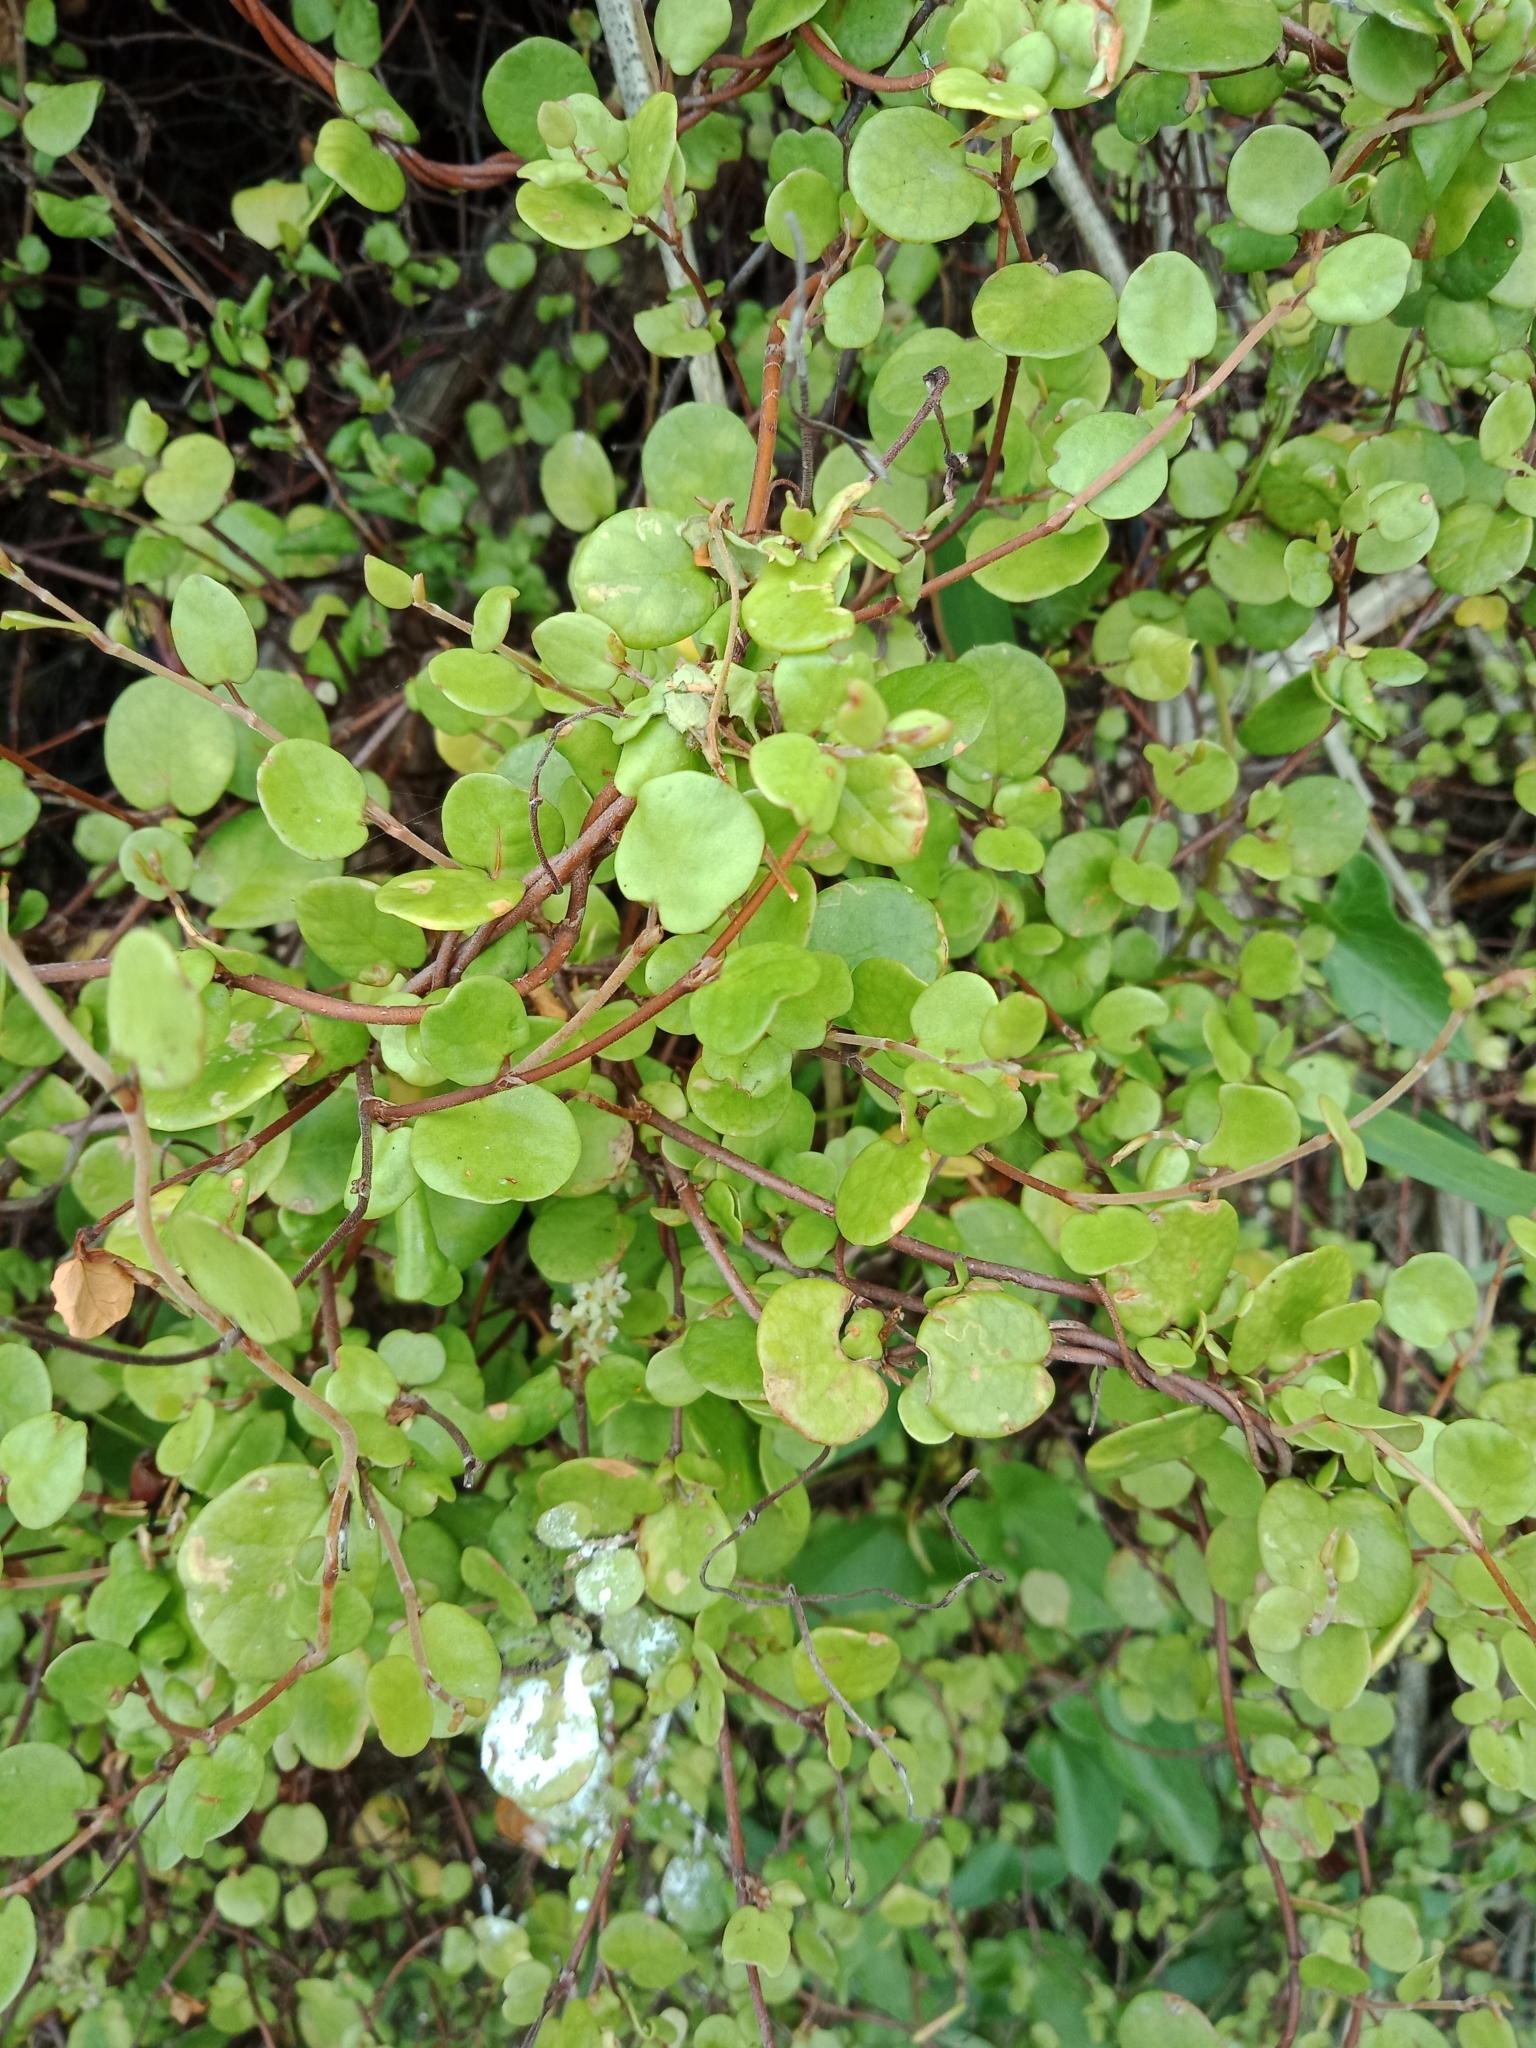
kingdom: Plantae
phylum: Tracheophyta
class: Magnoliopsida
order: Caryophyllales
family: Polygonaceae
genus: Muehlenbeckia
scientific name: Muehlenbeckia complexa
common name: Wireplant
